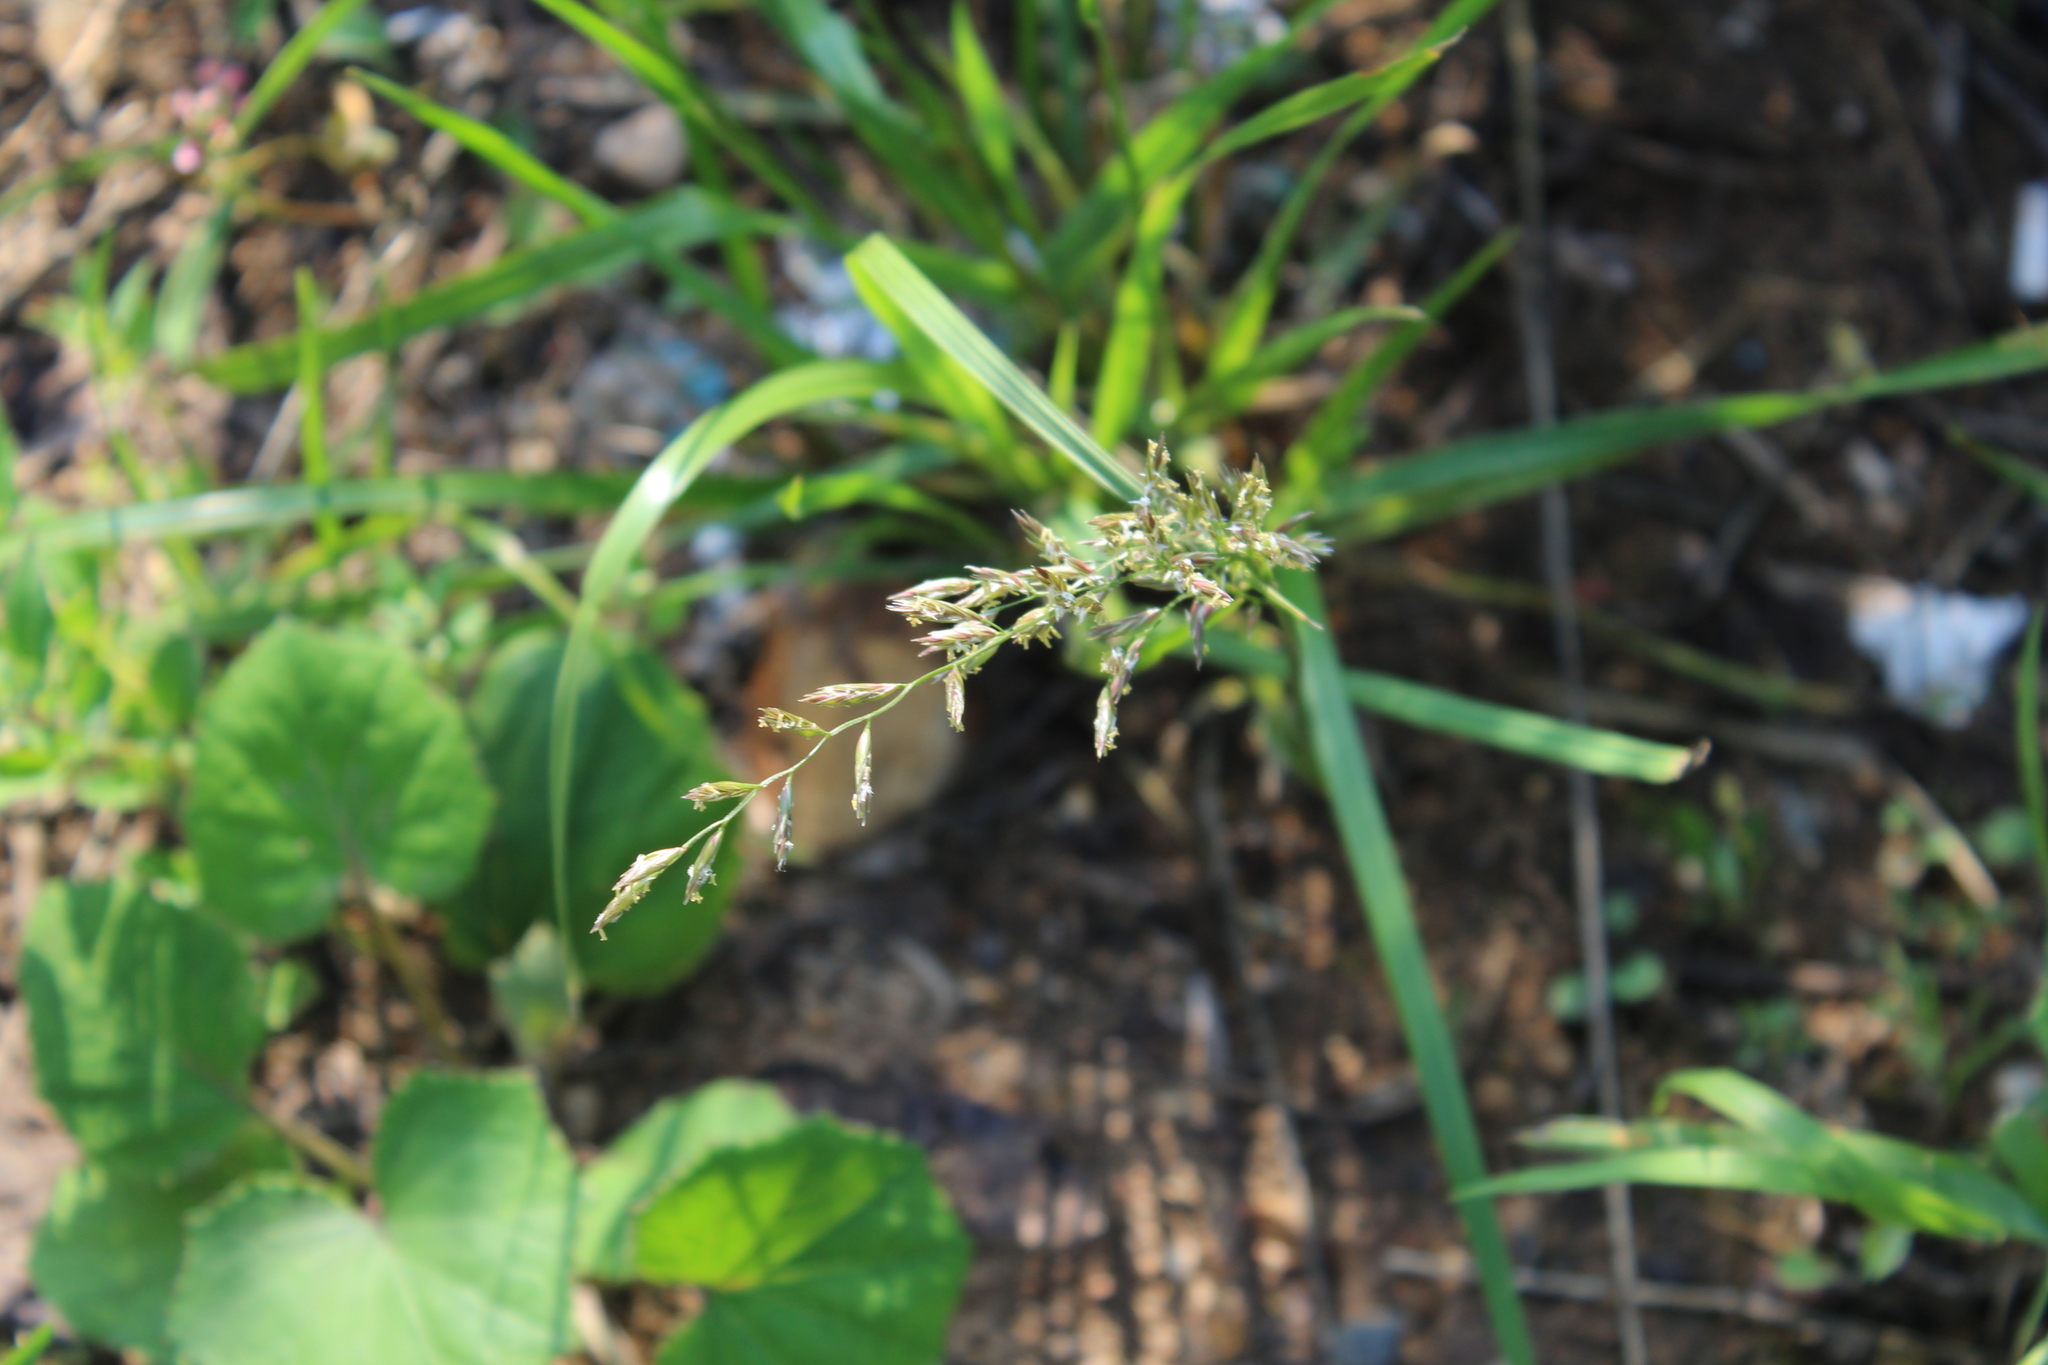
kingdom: Plantae
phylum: Tracheophyta
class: Liliopsida
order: Poales
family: Poaceae
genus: Lolium
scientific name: Lolium pratense
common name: Dover grass
